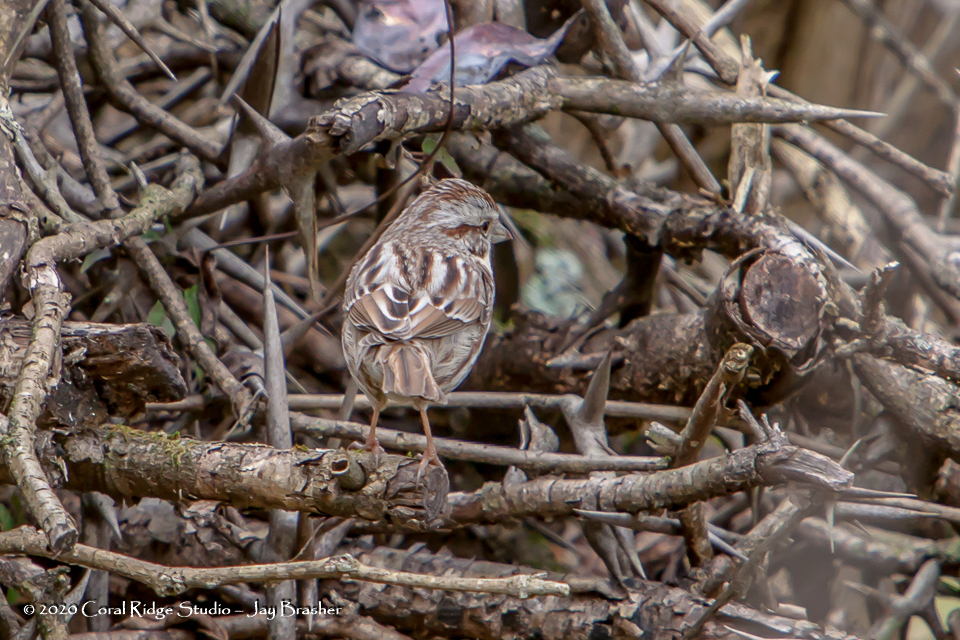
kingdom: Animalia
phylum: Chordata
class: Aves
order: Passeriformes
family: Passerellidae
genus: Melospiza
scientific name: Melospiza melodia
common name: Song sparrow
